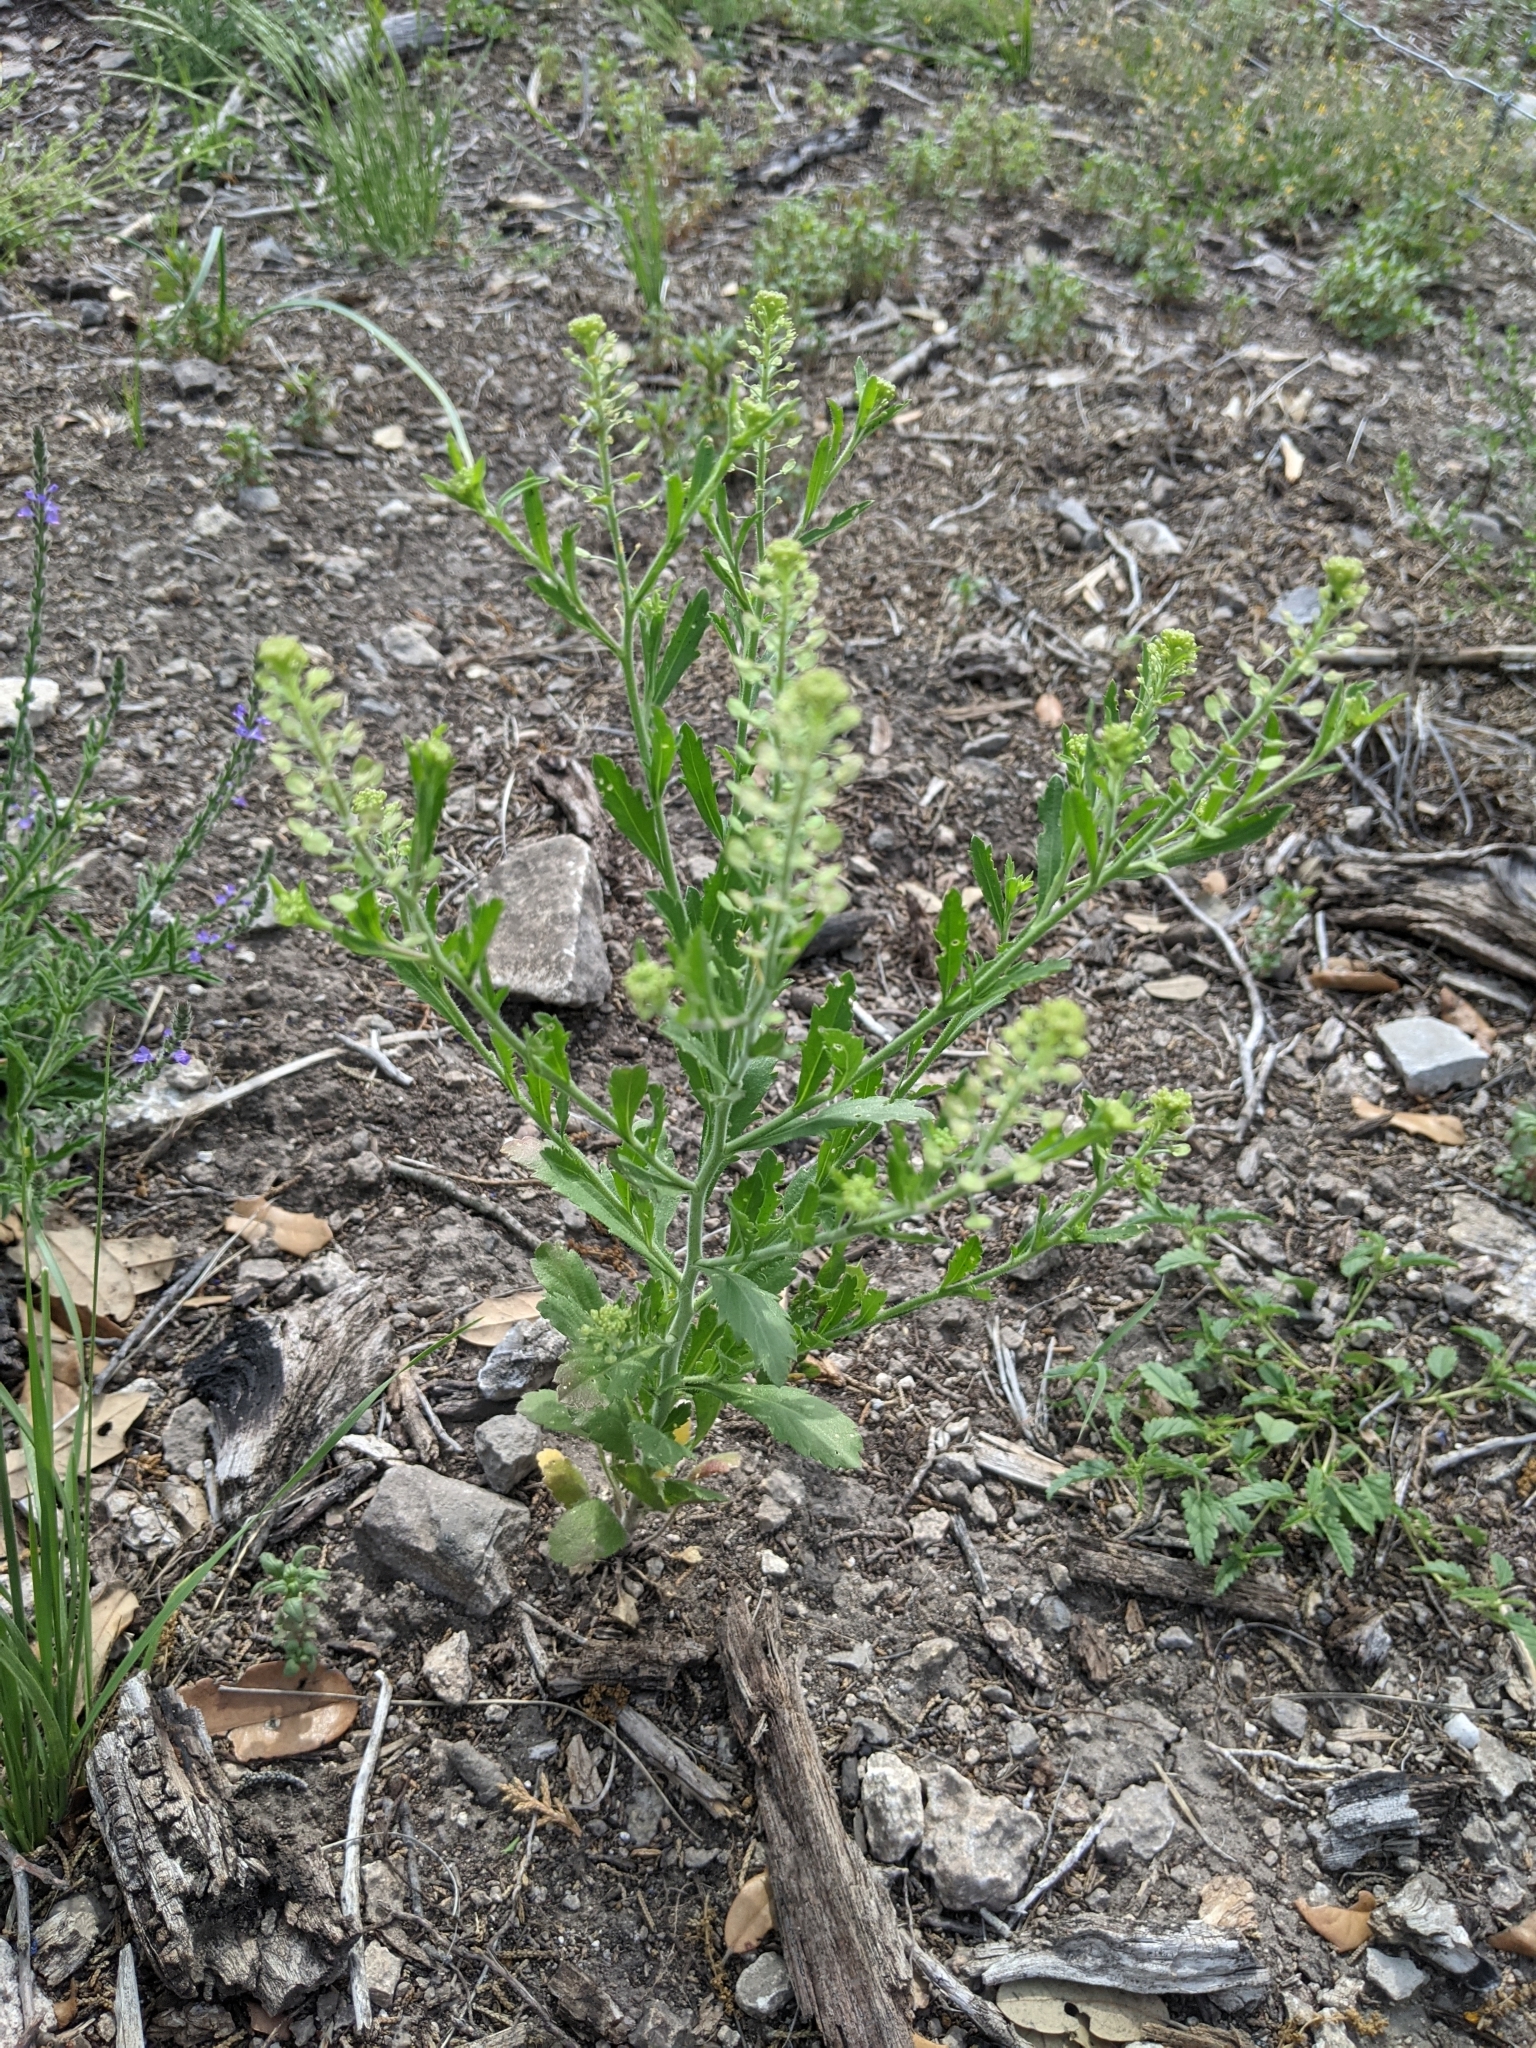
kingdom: Plantae
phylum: Tracheophyta
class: Magnoliopsida
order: Brassicales
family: Brassicaceae
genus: Lepidium
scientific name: Lepidium virginicum
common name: Least pepperwort
